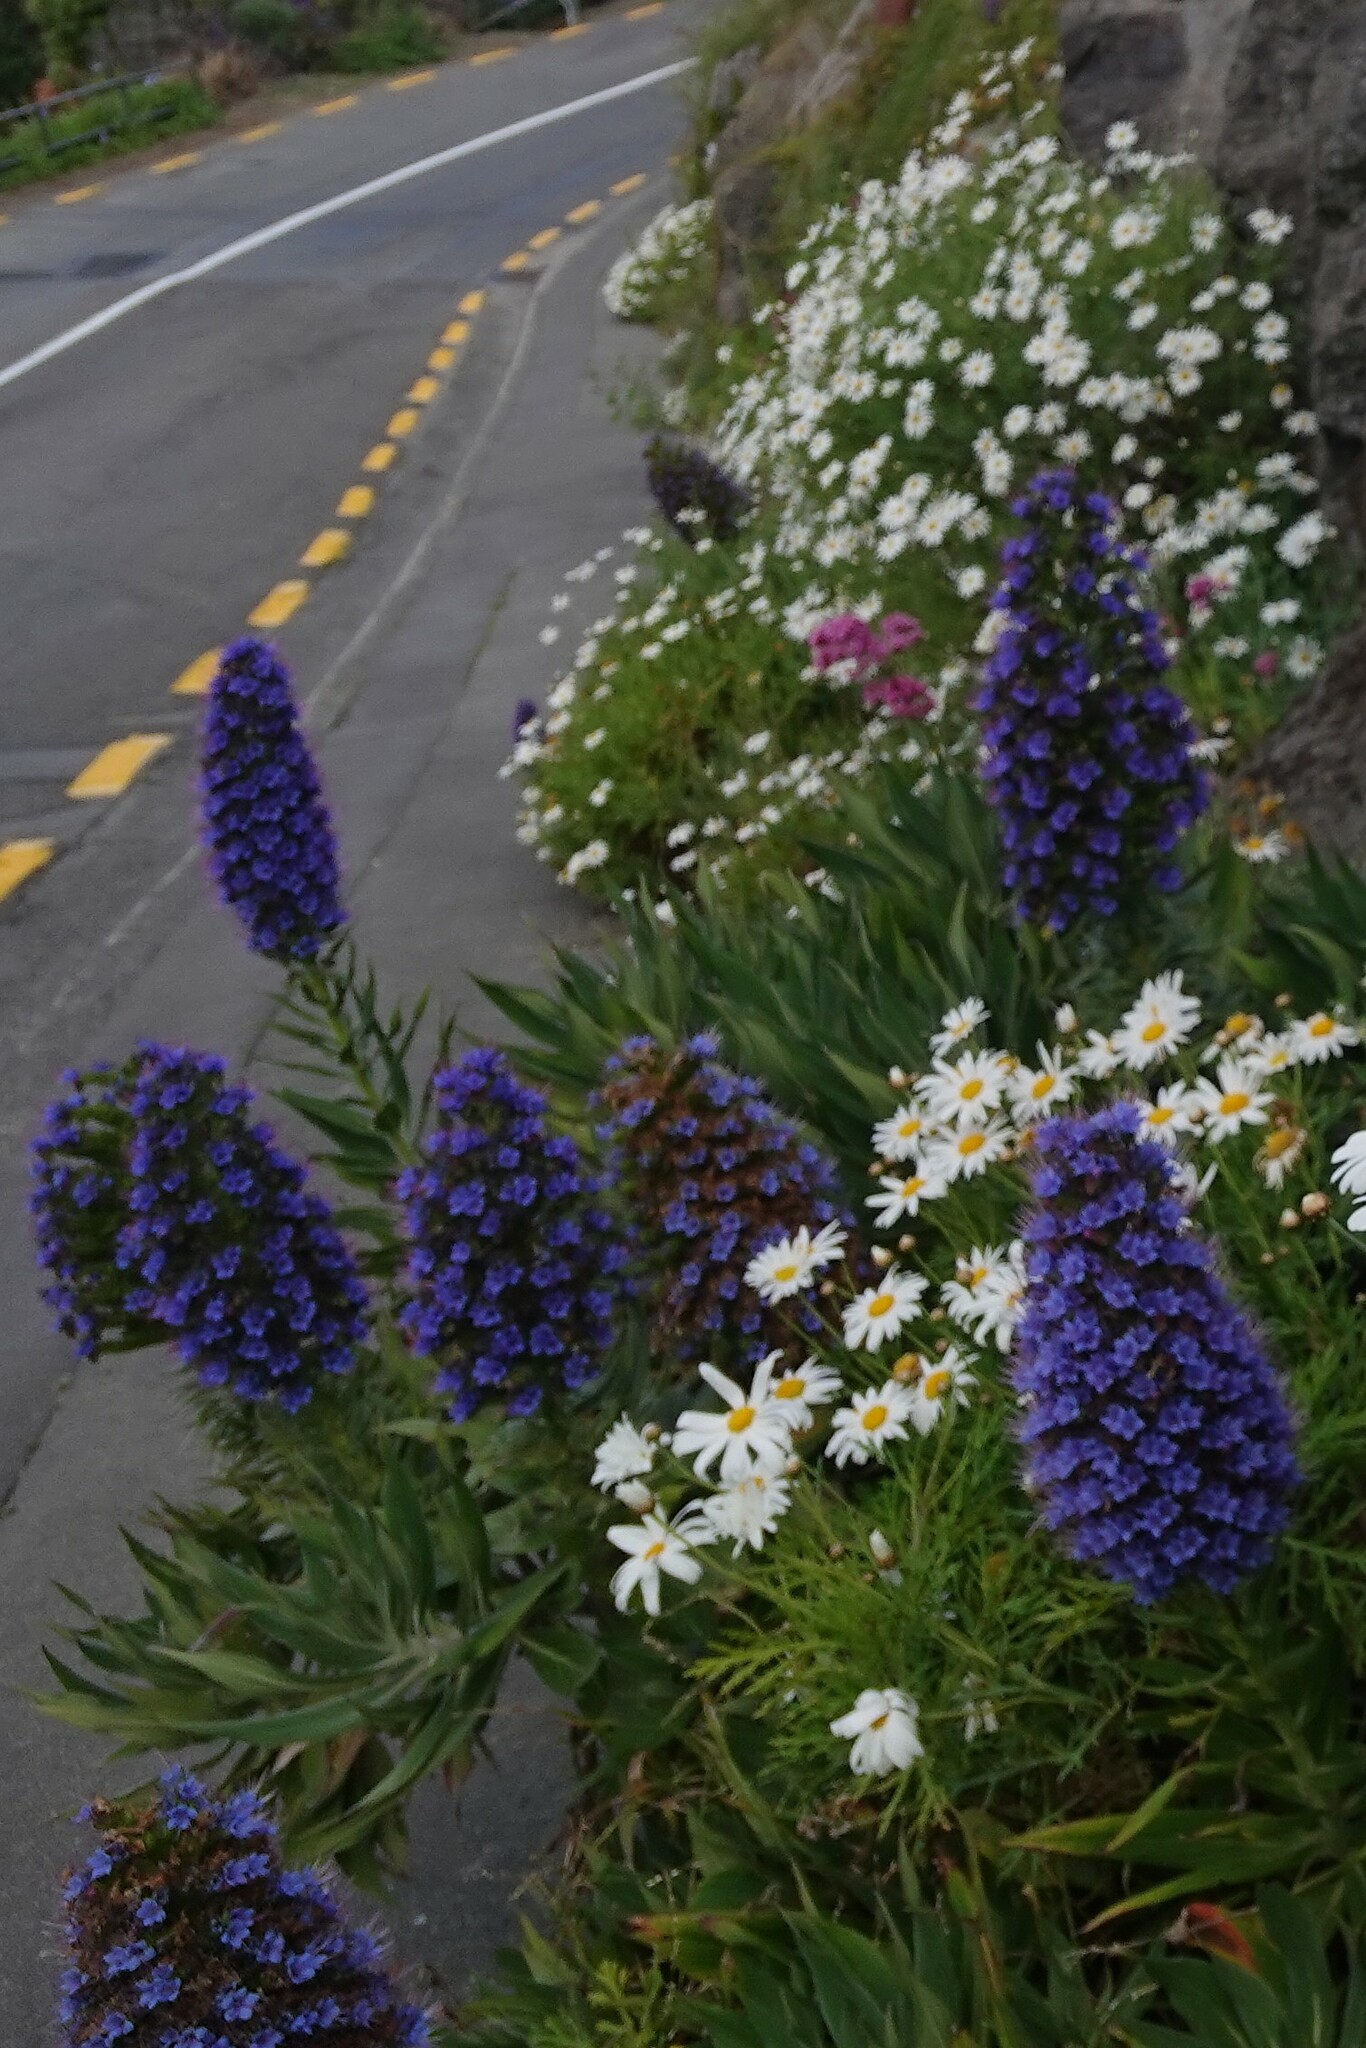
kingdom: Plantae
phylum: Tracheophyta
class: Magnoliopsida
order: Boraginales
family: Boraginaceae
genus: Echium
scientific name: Echium candicans
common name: Pride of madeira
